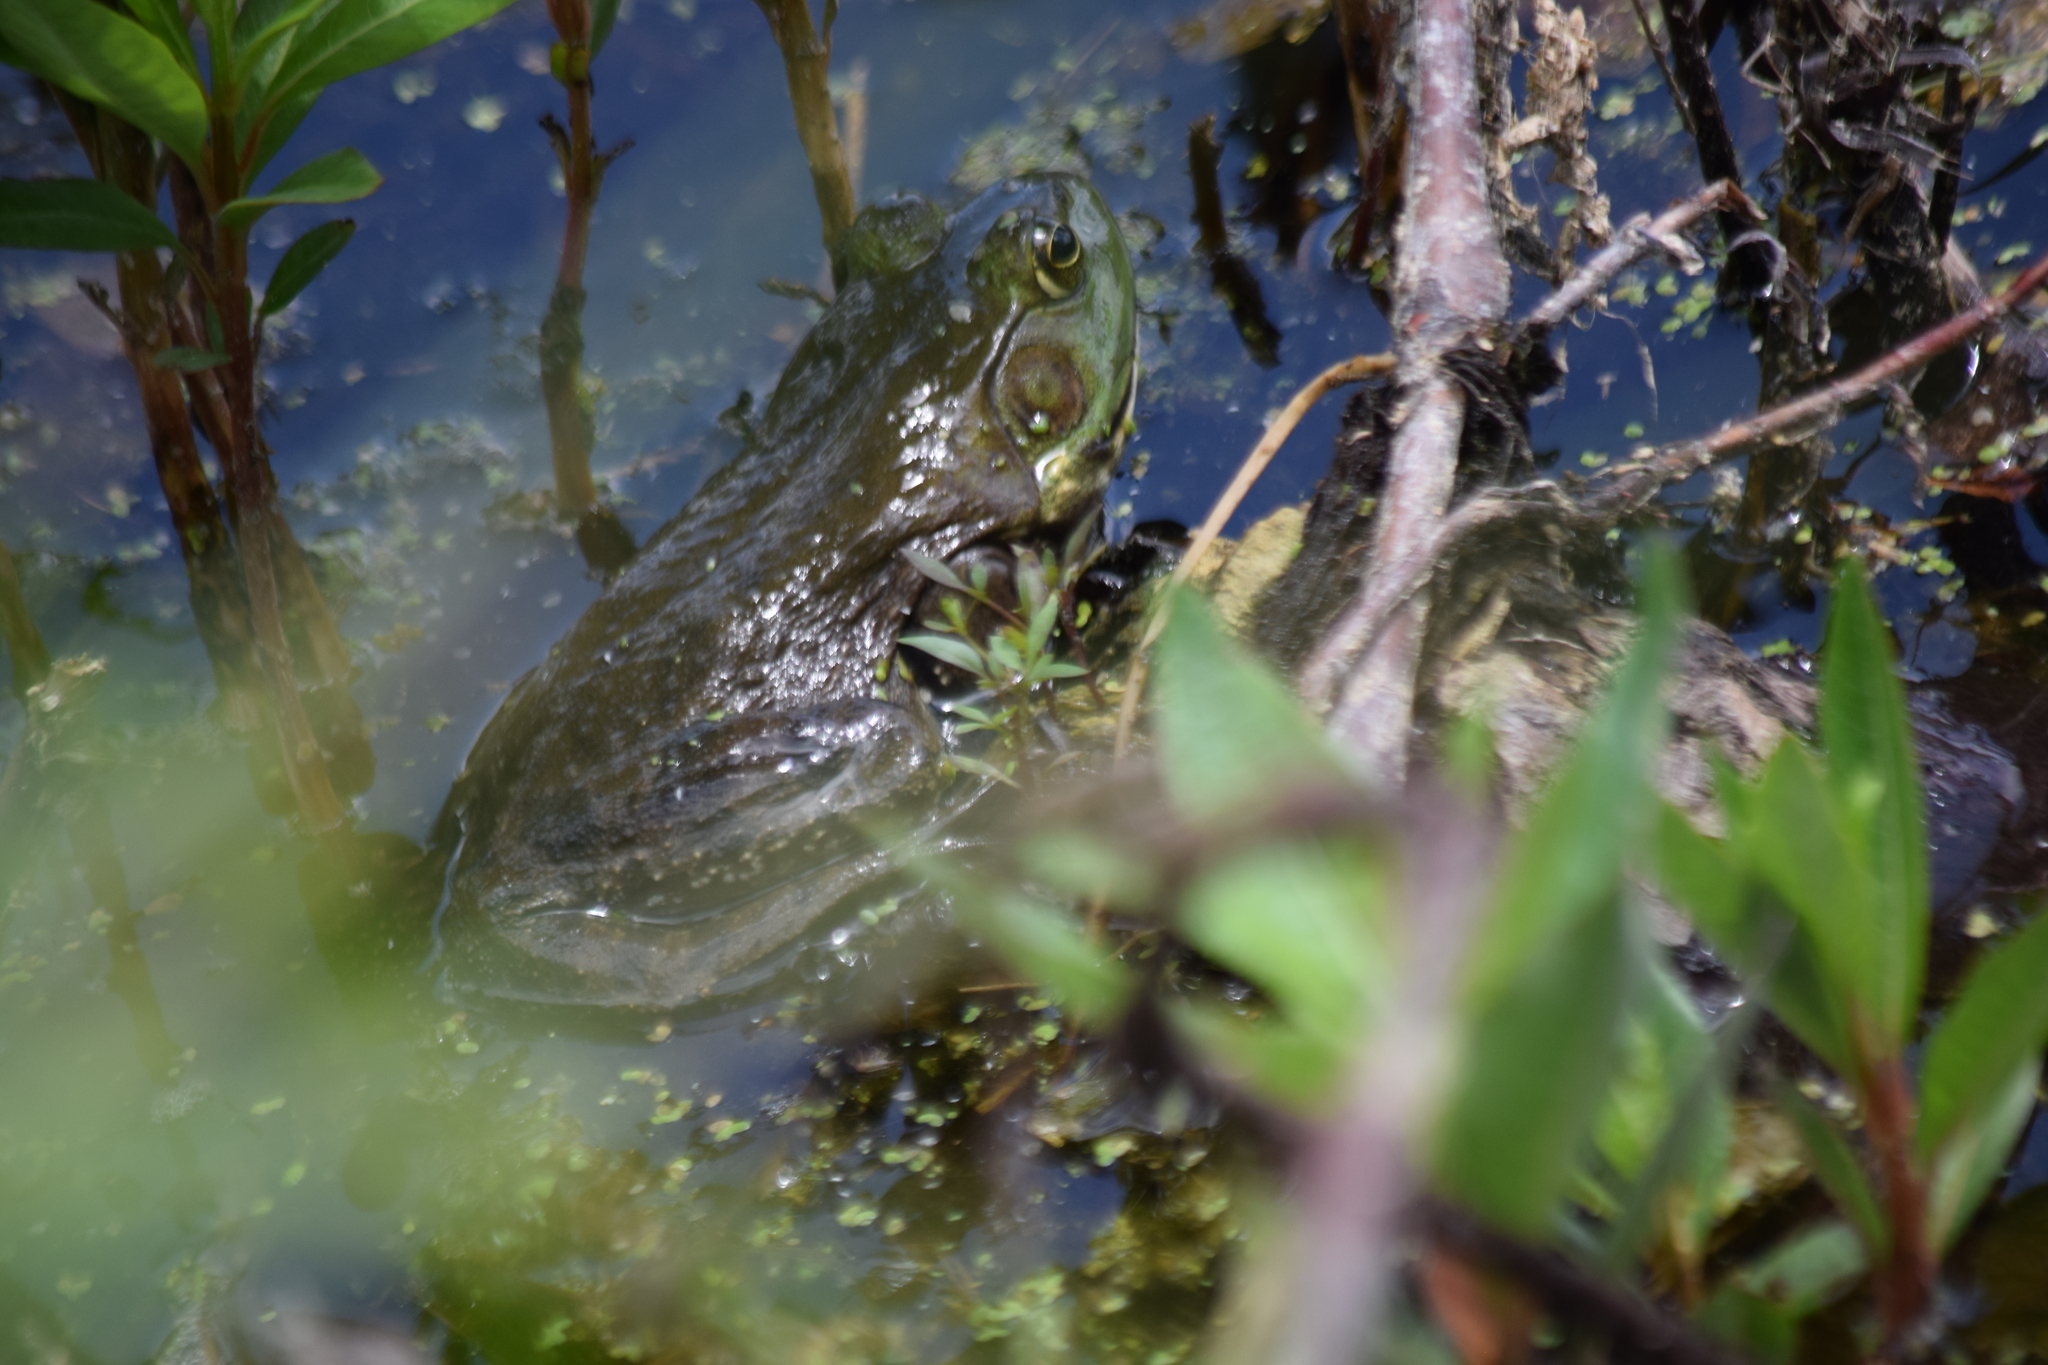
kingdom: Animalia
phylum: Chordata
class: Amphibia
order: Anura
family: Ranidae
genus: Lithobates
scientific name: Lithobates catesbeianus
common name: American bullfrog
